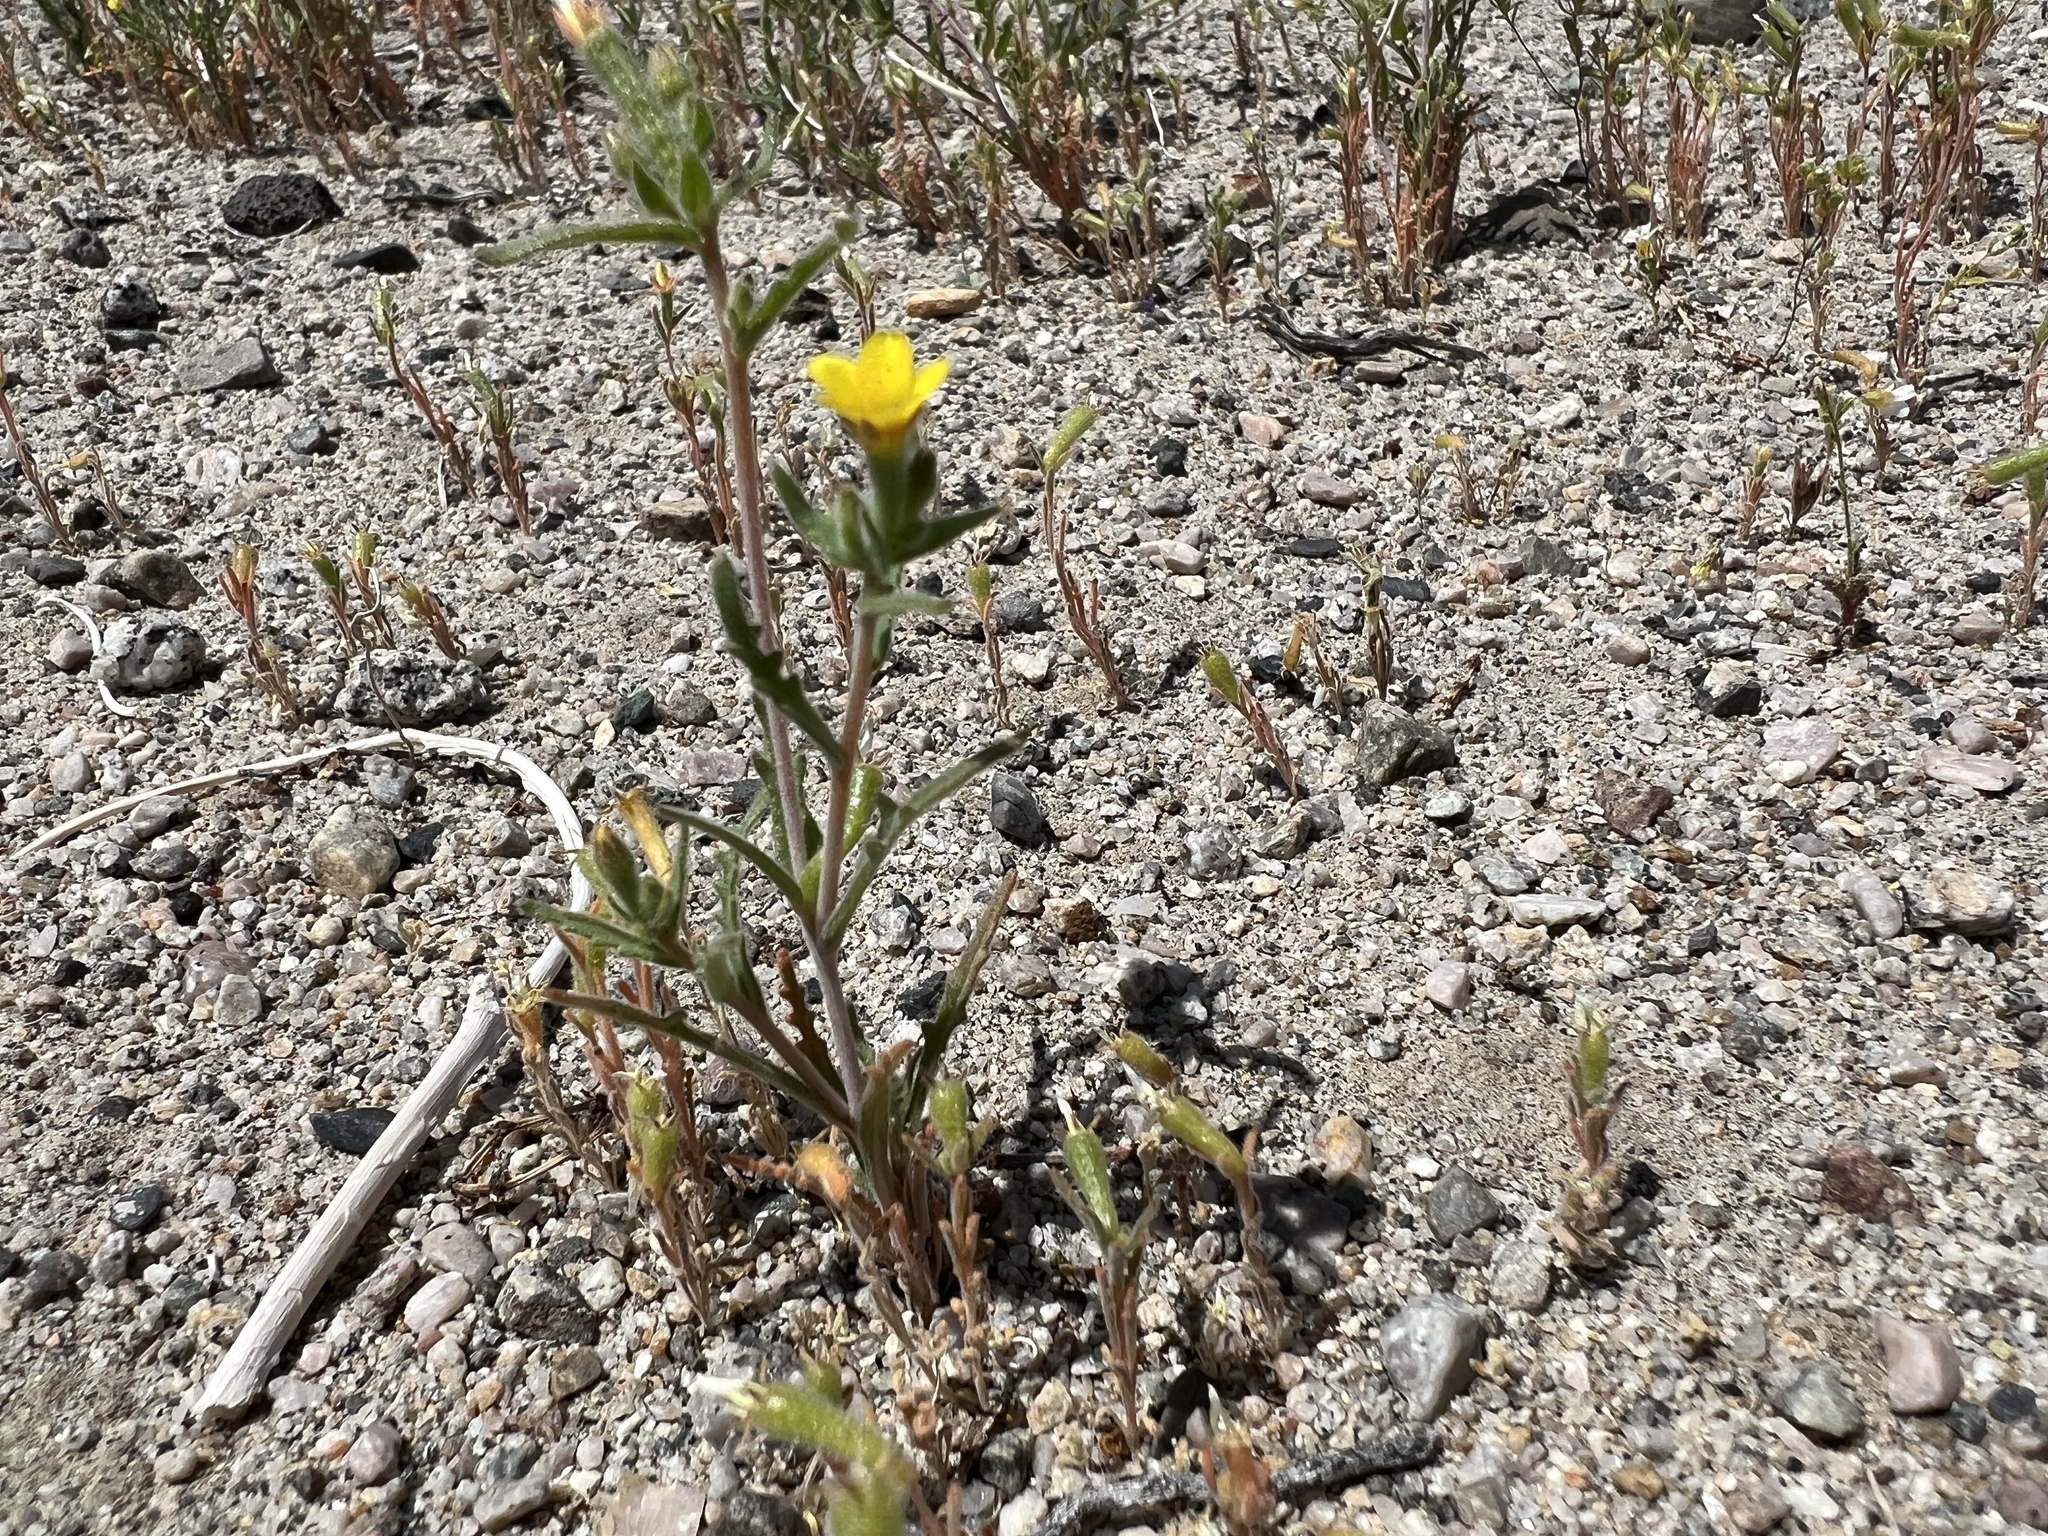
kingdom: Plantae
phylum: Tracheophyta
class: Magnoliopsida
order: Cornales
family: Loasaceae
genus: Mentzelia
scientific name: Mentzelia albicaulis
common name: White-stem blazingstar
